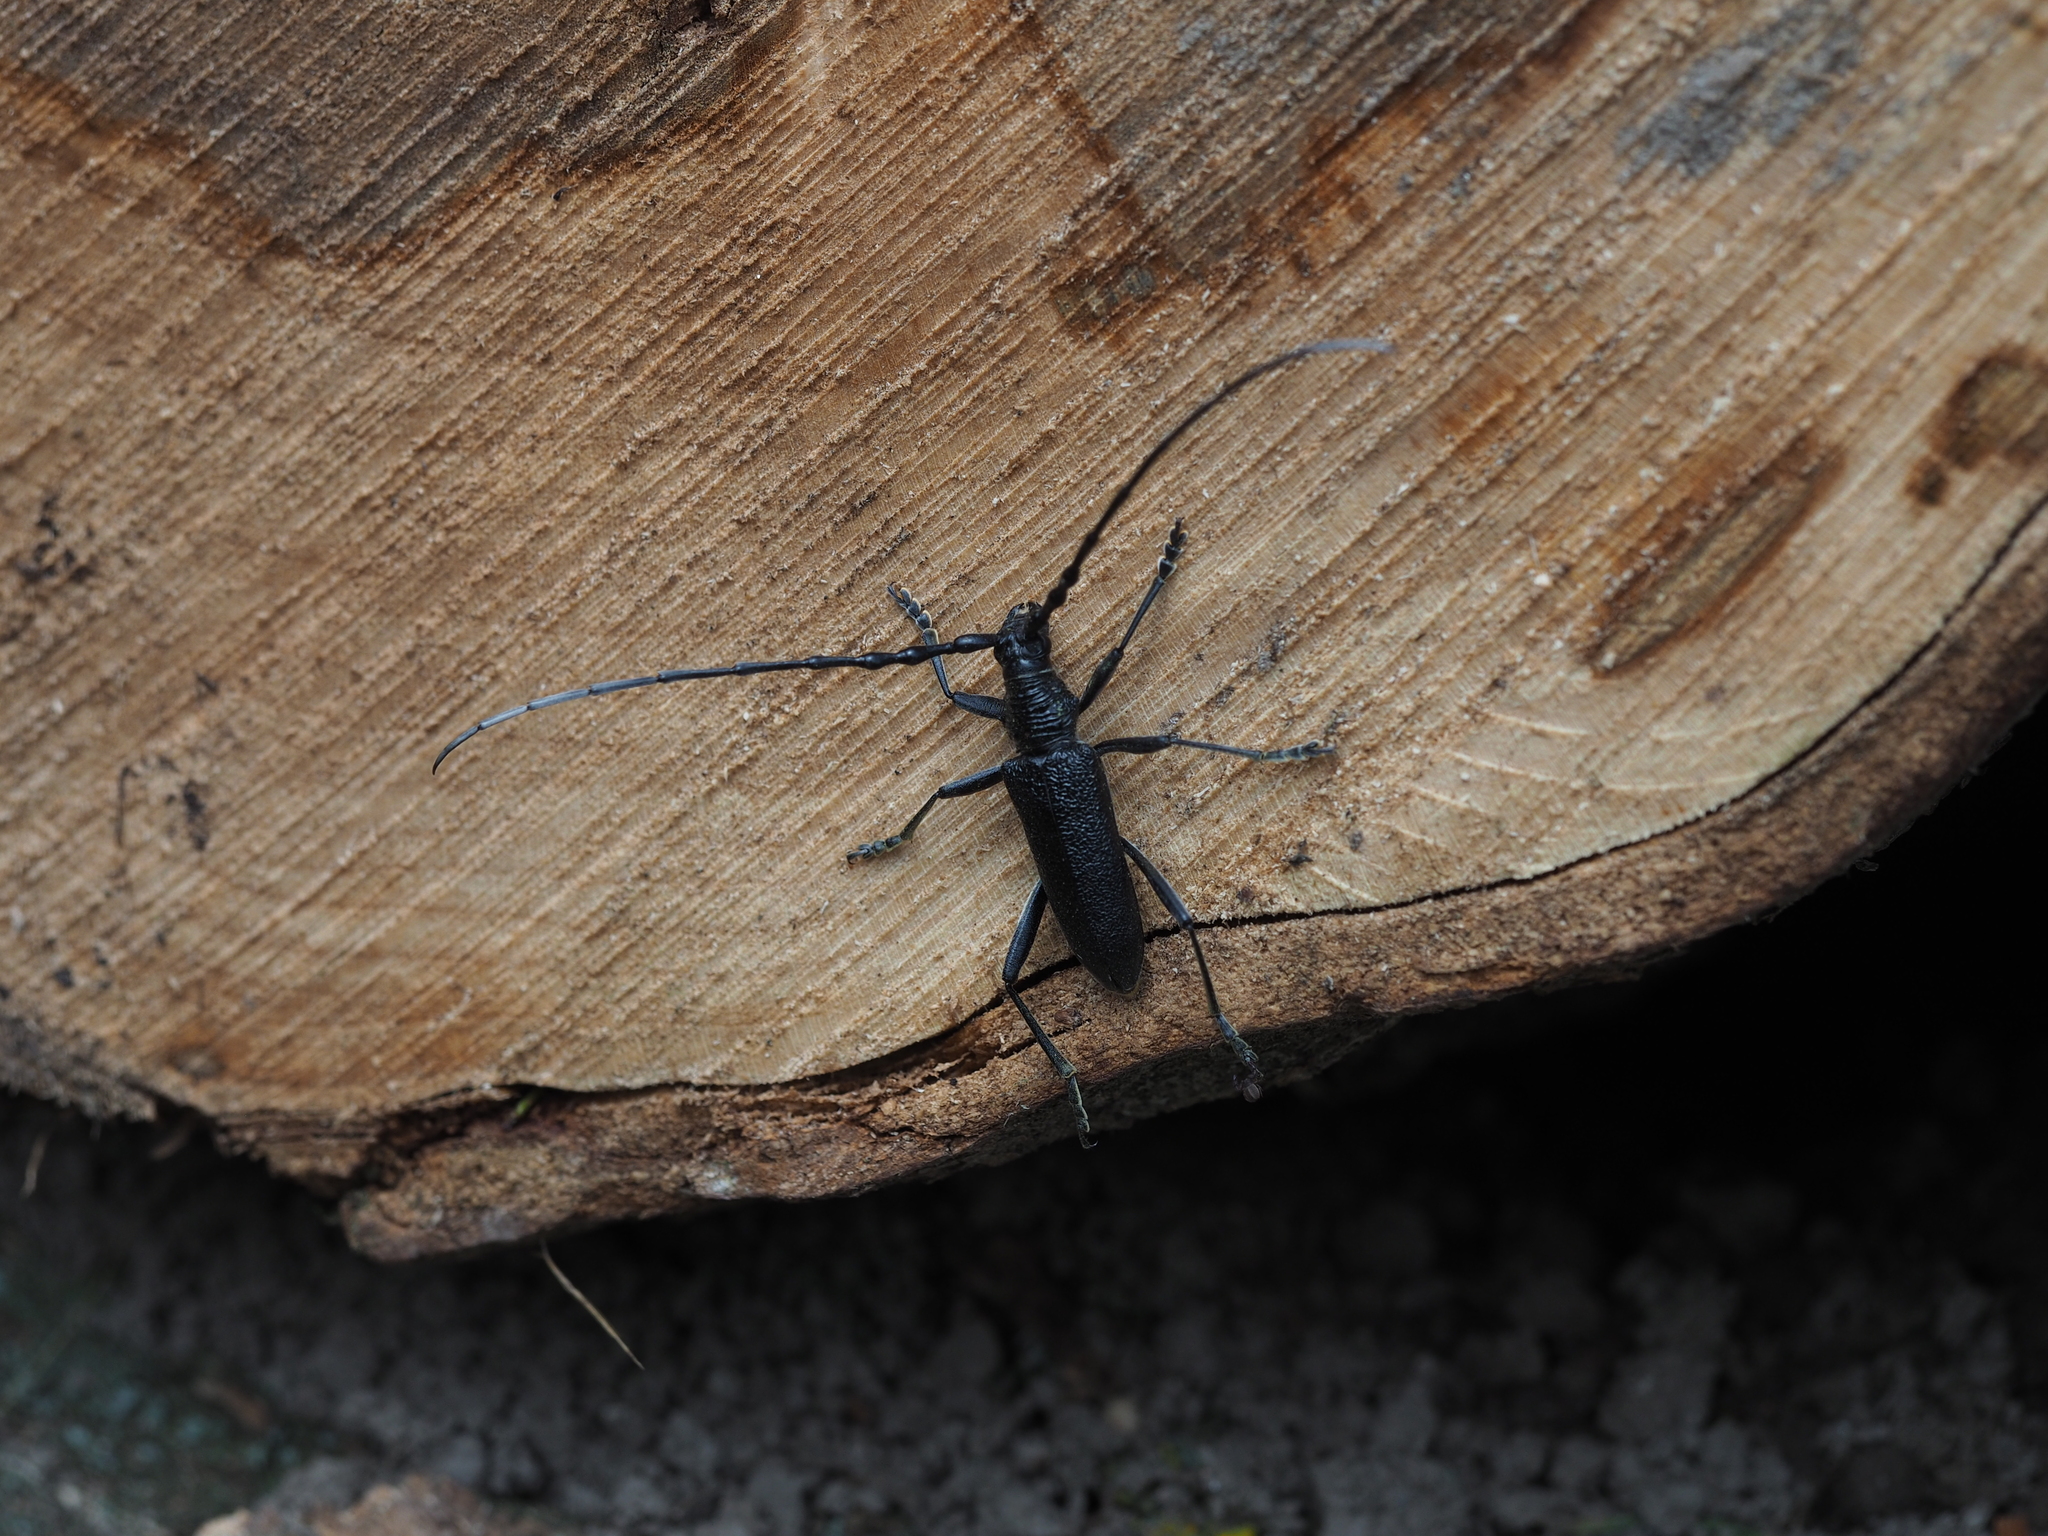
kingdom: Animalia
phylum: Arthropoda
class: Insecta
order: Coleoptera
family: Cerambycidae
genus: Cerambyx
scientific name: Cerambyx scopolii
